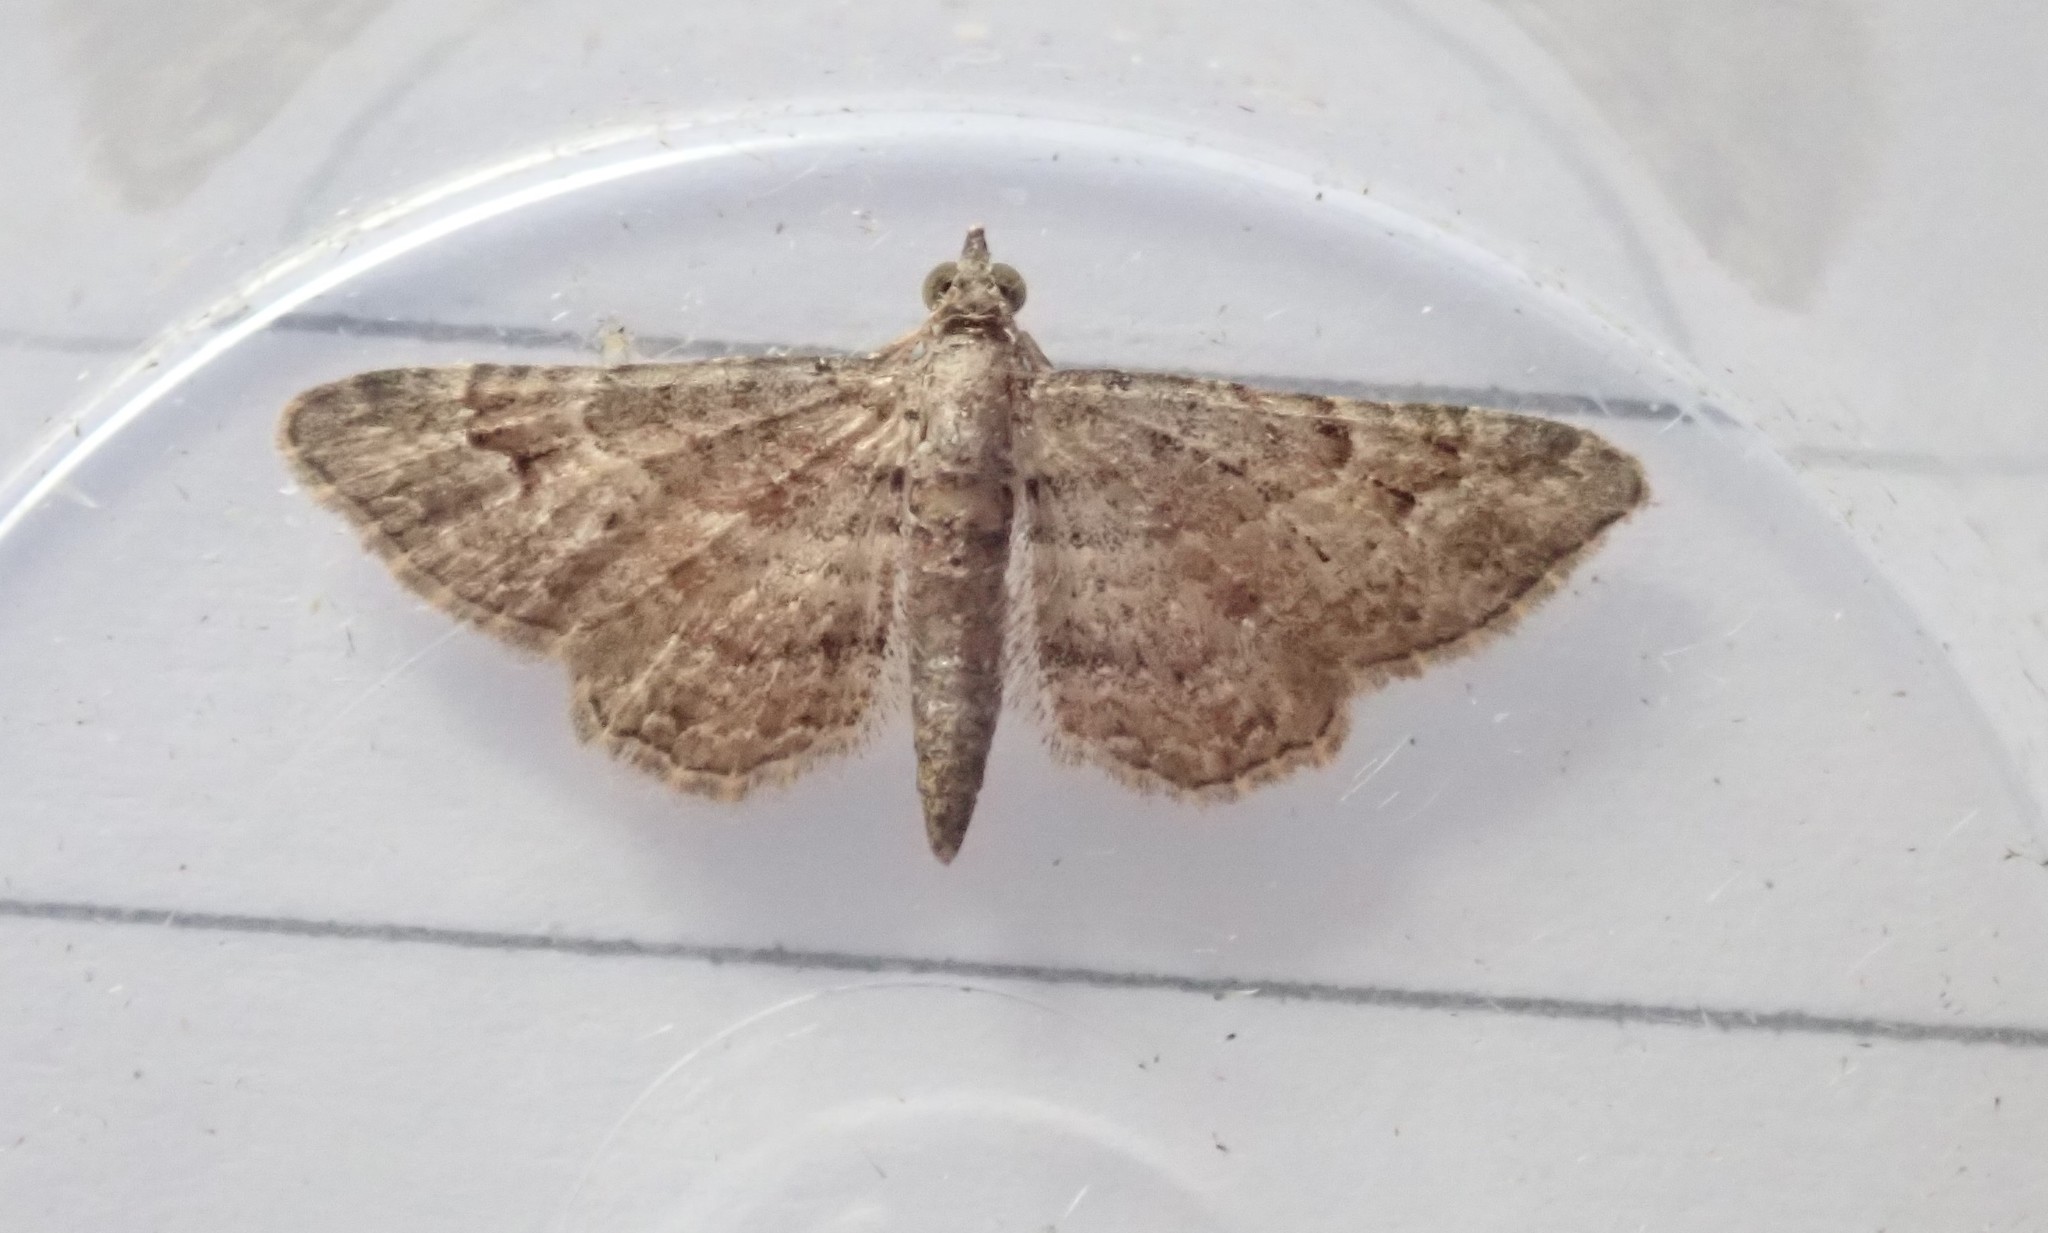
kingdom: Animalia
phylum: Arthropoda
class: Insecta
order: Lepidoptera
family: Geometridae
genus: Gymnoscelis
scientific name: Gymnoscelis rufifasciata
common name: Double-striped pug
